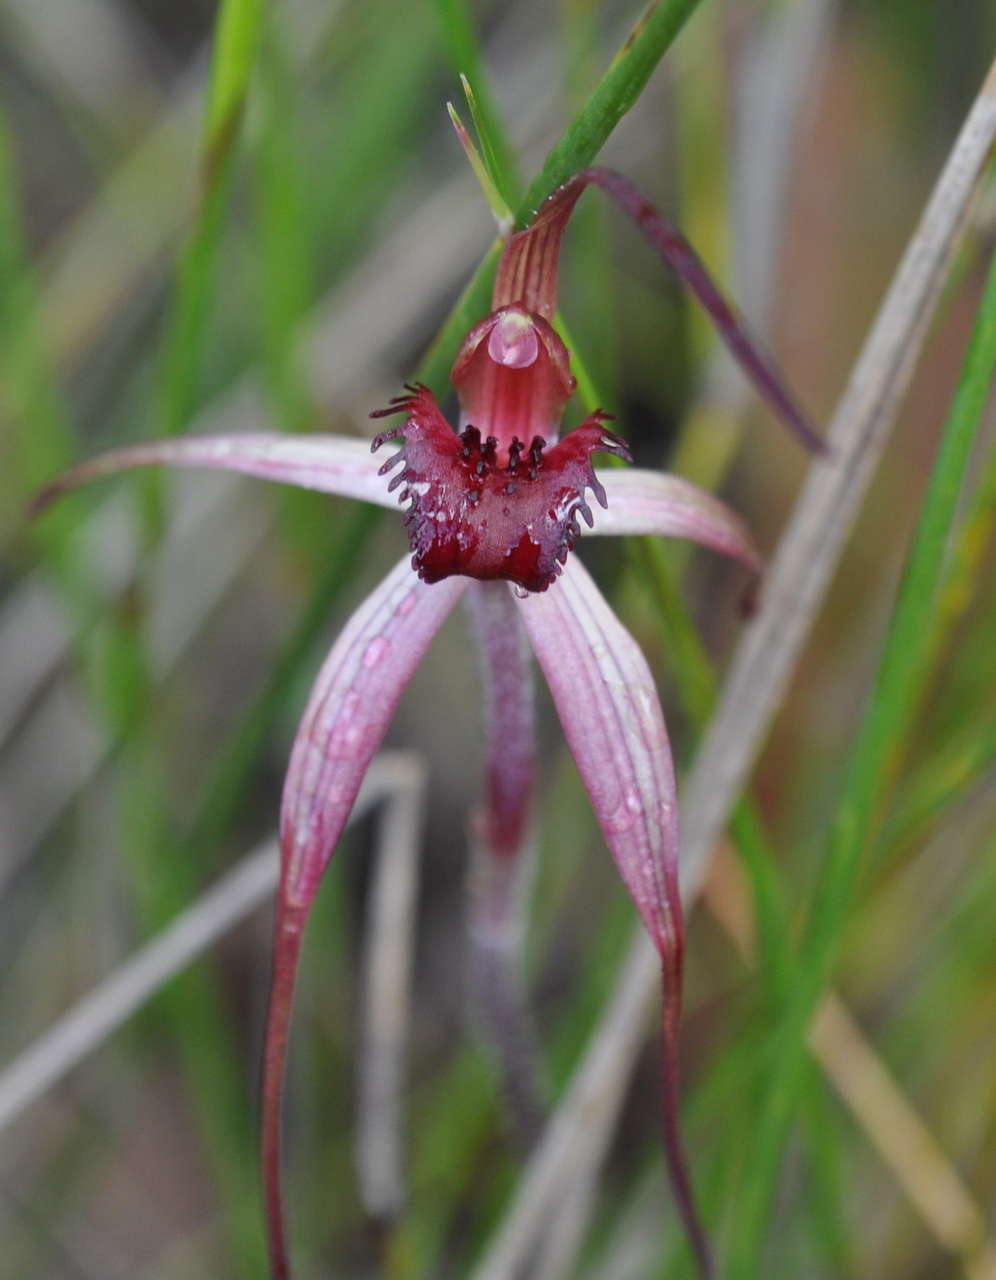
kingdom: Plantae
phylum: Tracheophyta
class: Liliopsida
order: Asparagales
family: Orchidaceae
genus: Caladenia
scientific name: Caladenia grampiana
